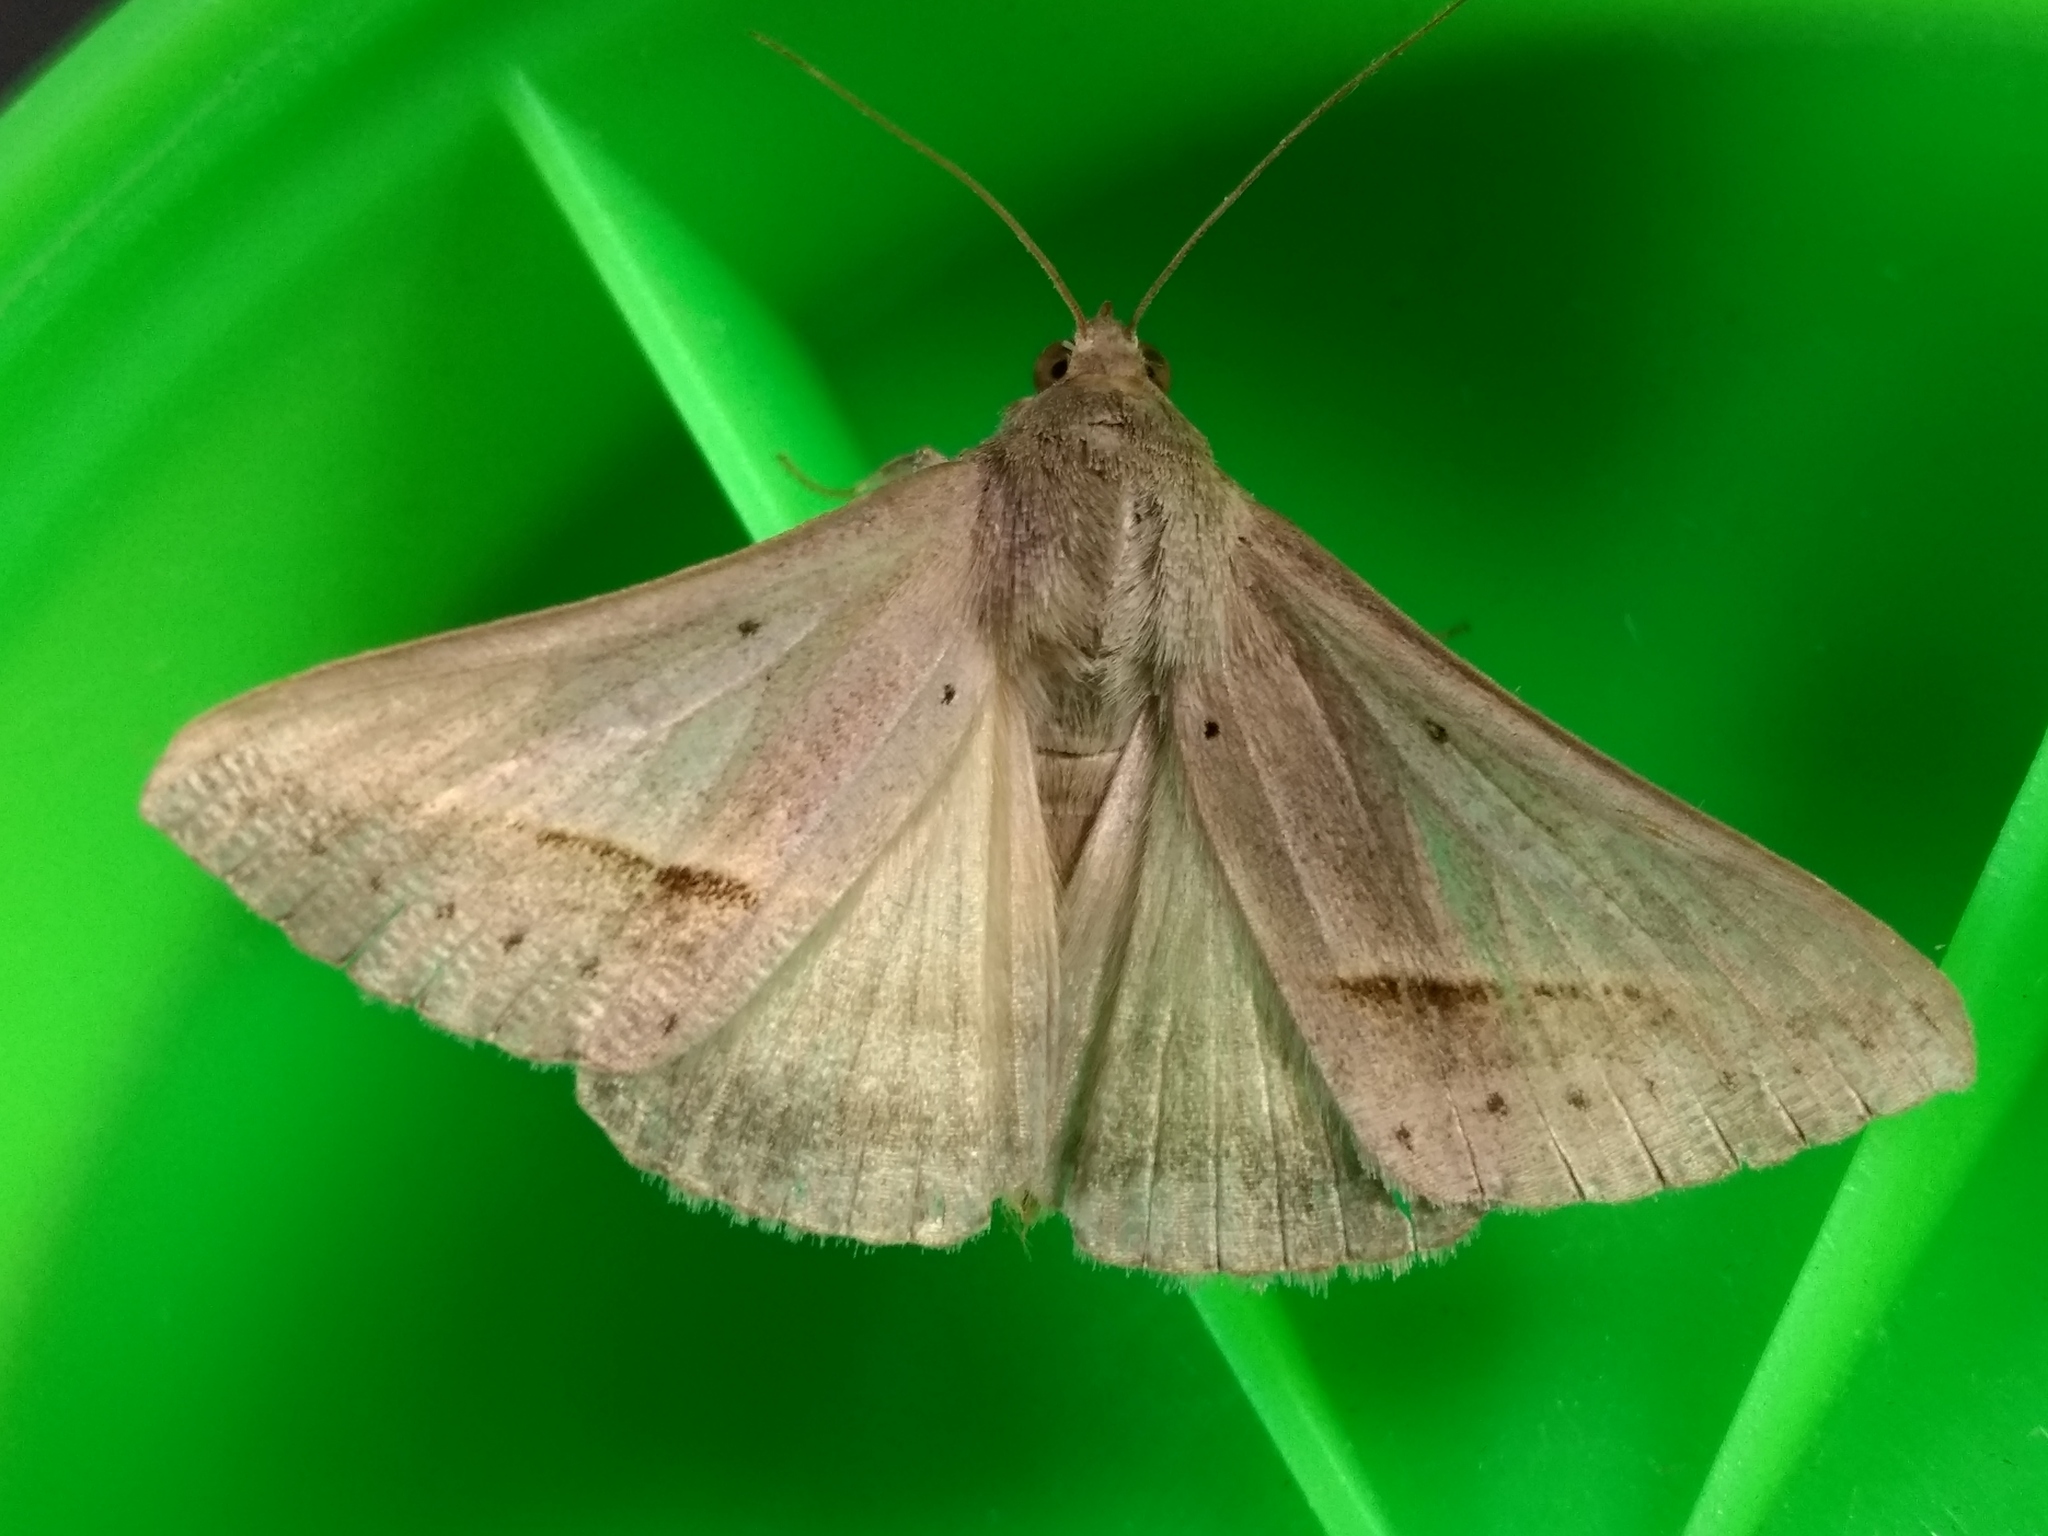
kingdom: Animalia
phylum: Arthropoda
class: Insecta
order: Lepidoptera
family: Erebidae
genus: Mocis
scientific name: Mocis frugalis
